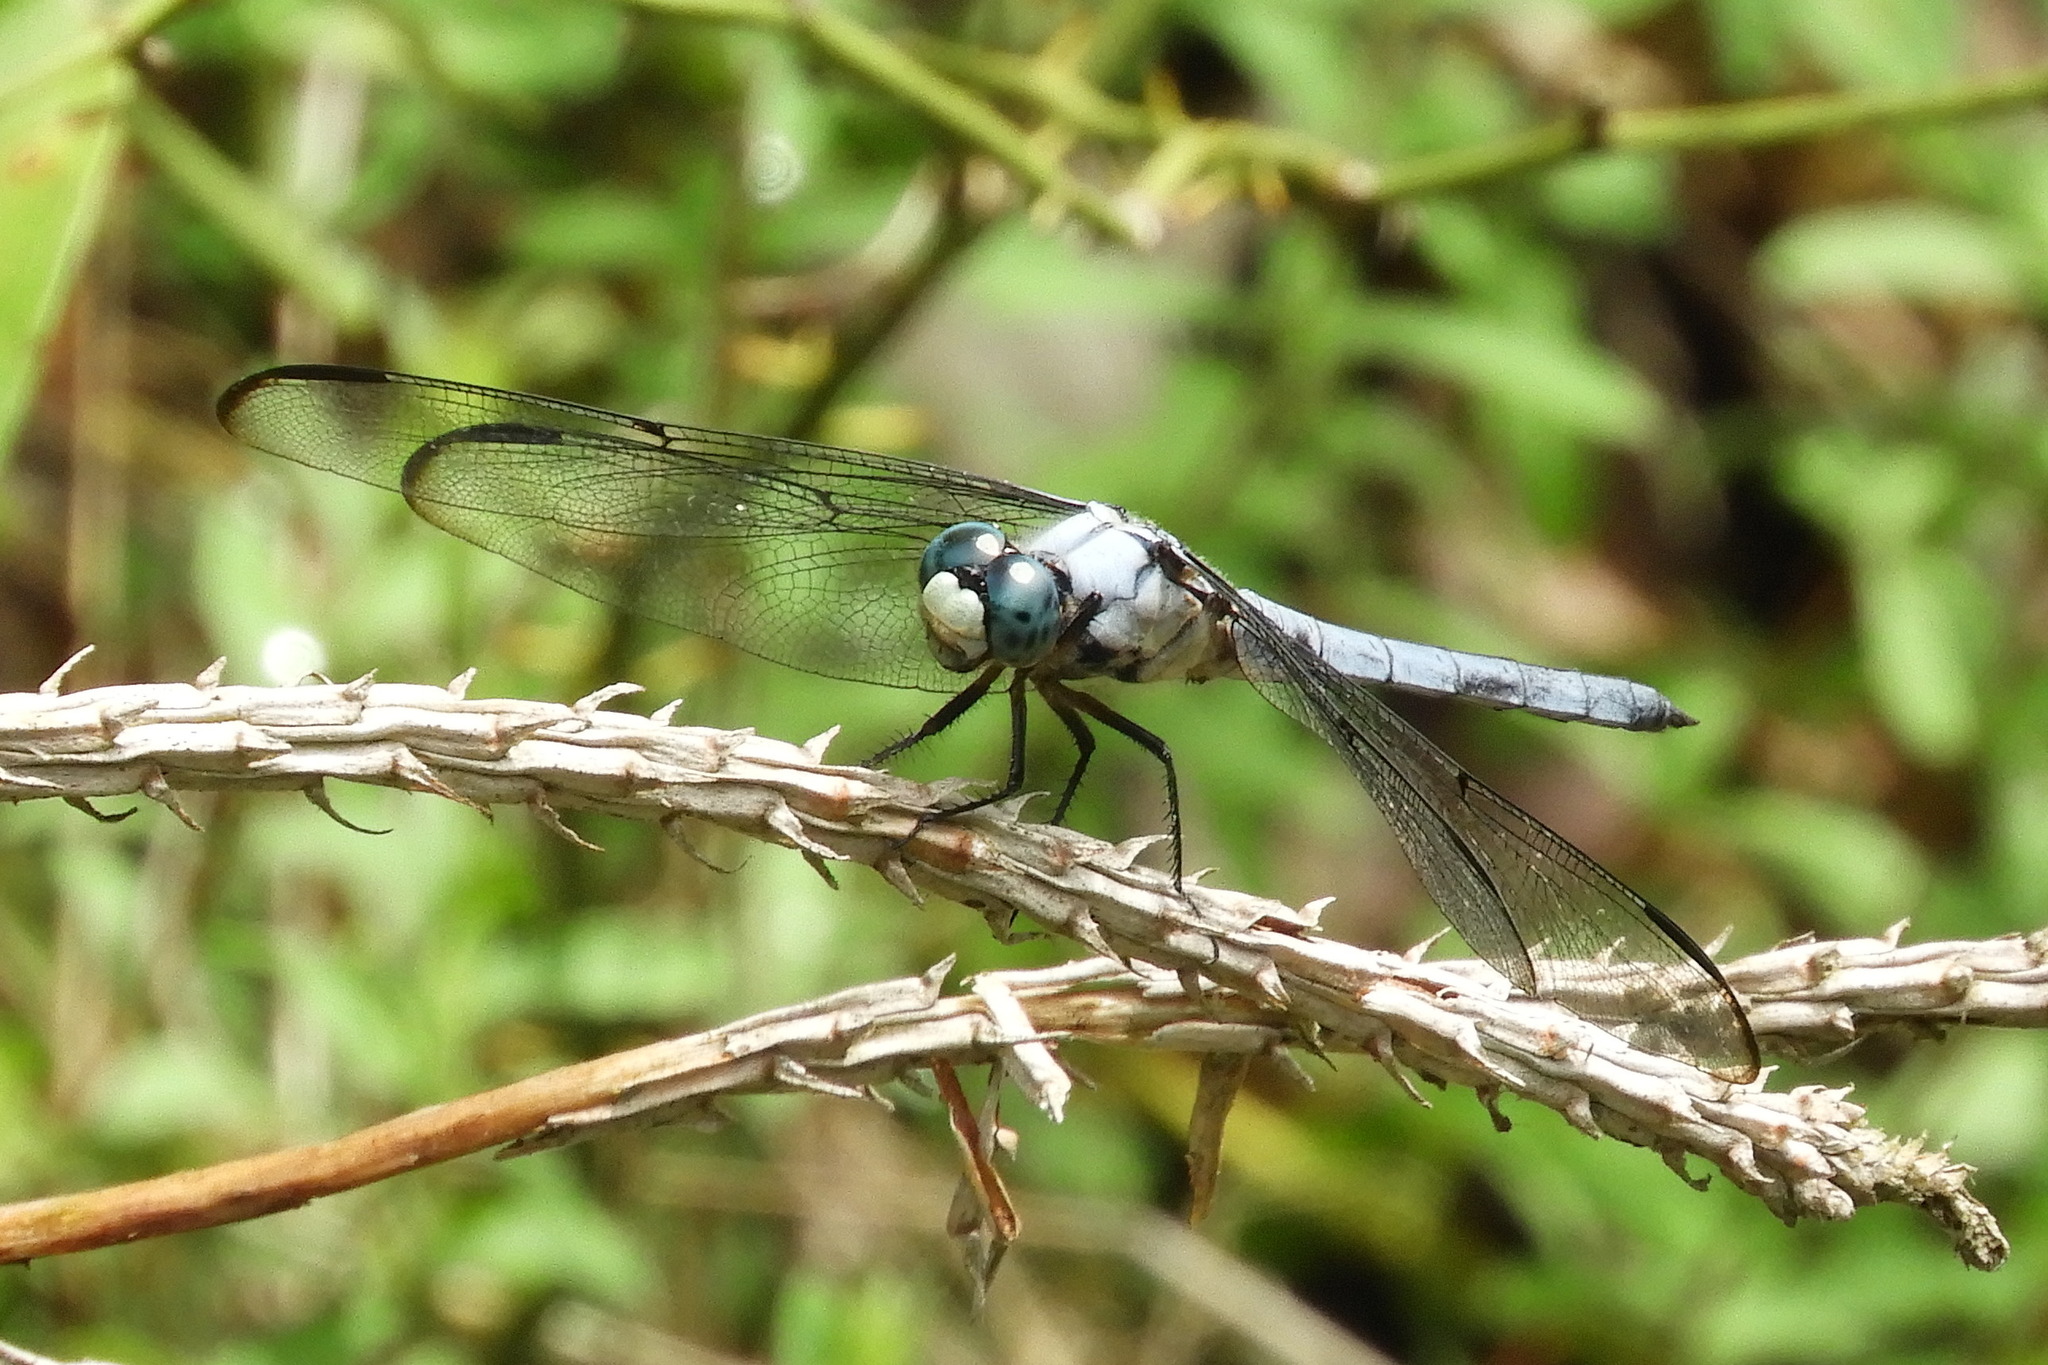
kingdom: Animalia
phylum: Arthropoda
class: Insecta
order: Odonata
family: Libellulidae
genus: Libellula
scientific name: Libellula vibrans
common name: Great blue skimmer
